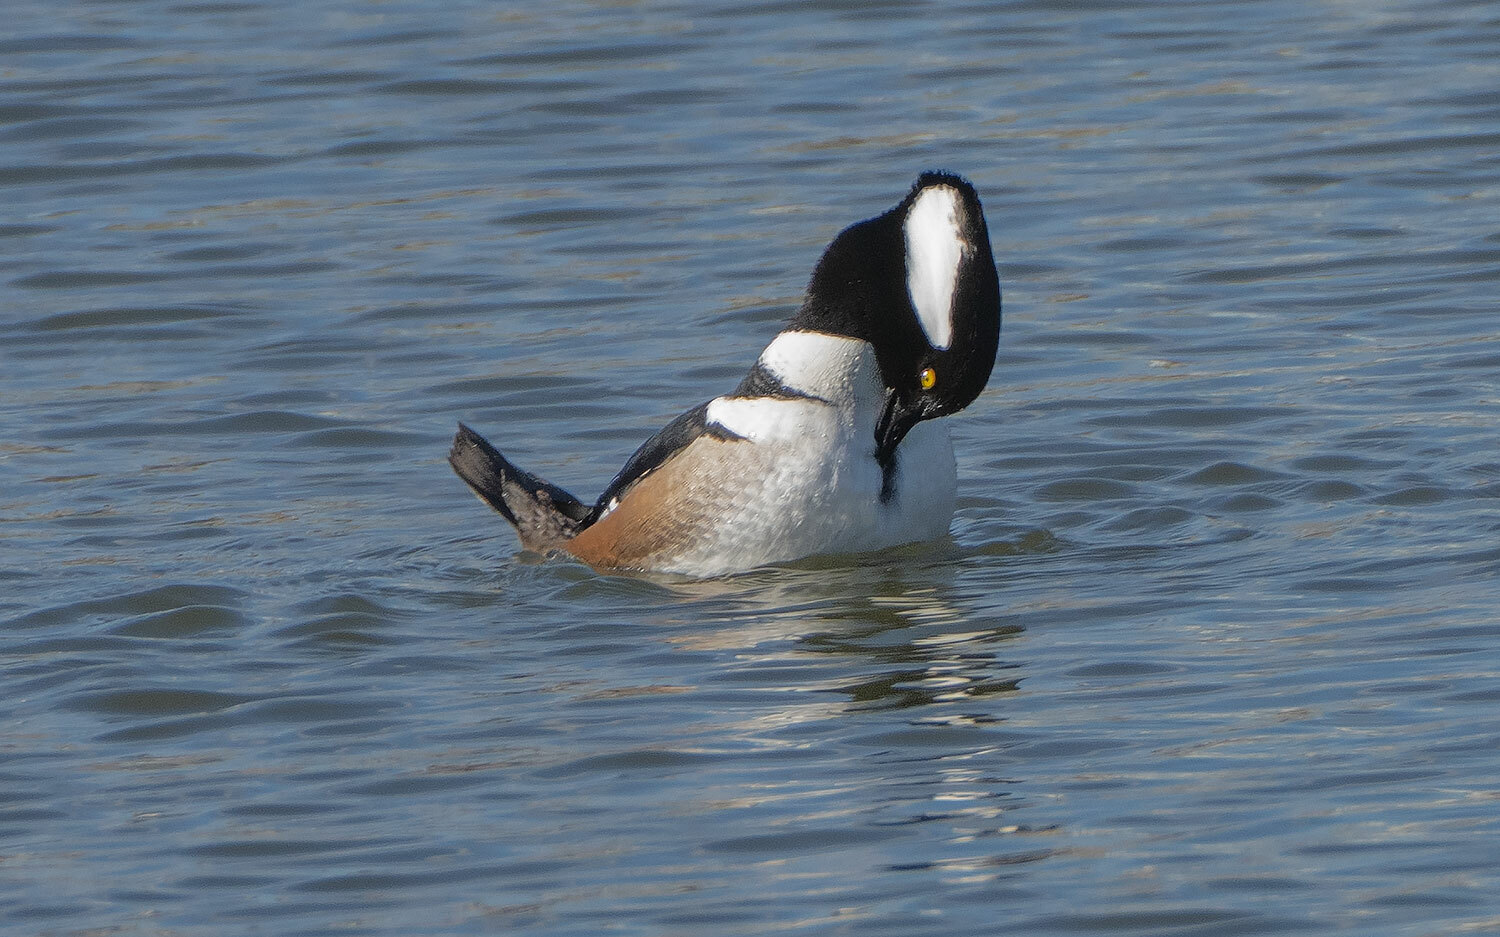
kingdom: Animalia
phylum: Chordata
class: Aves
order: Anseriformes
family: Anatidae
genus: Lophodytes
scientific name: Lophodytes cucullatus
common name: Hooded merganser
